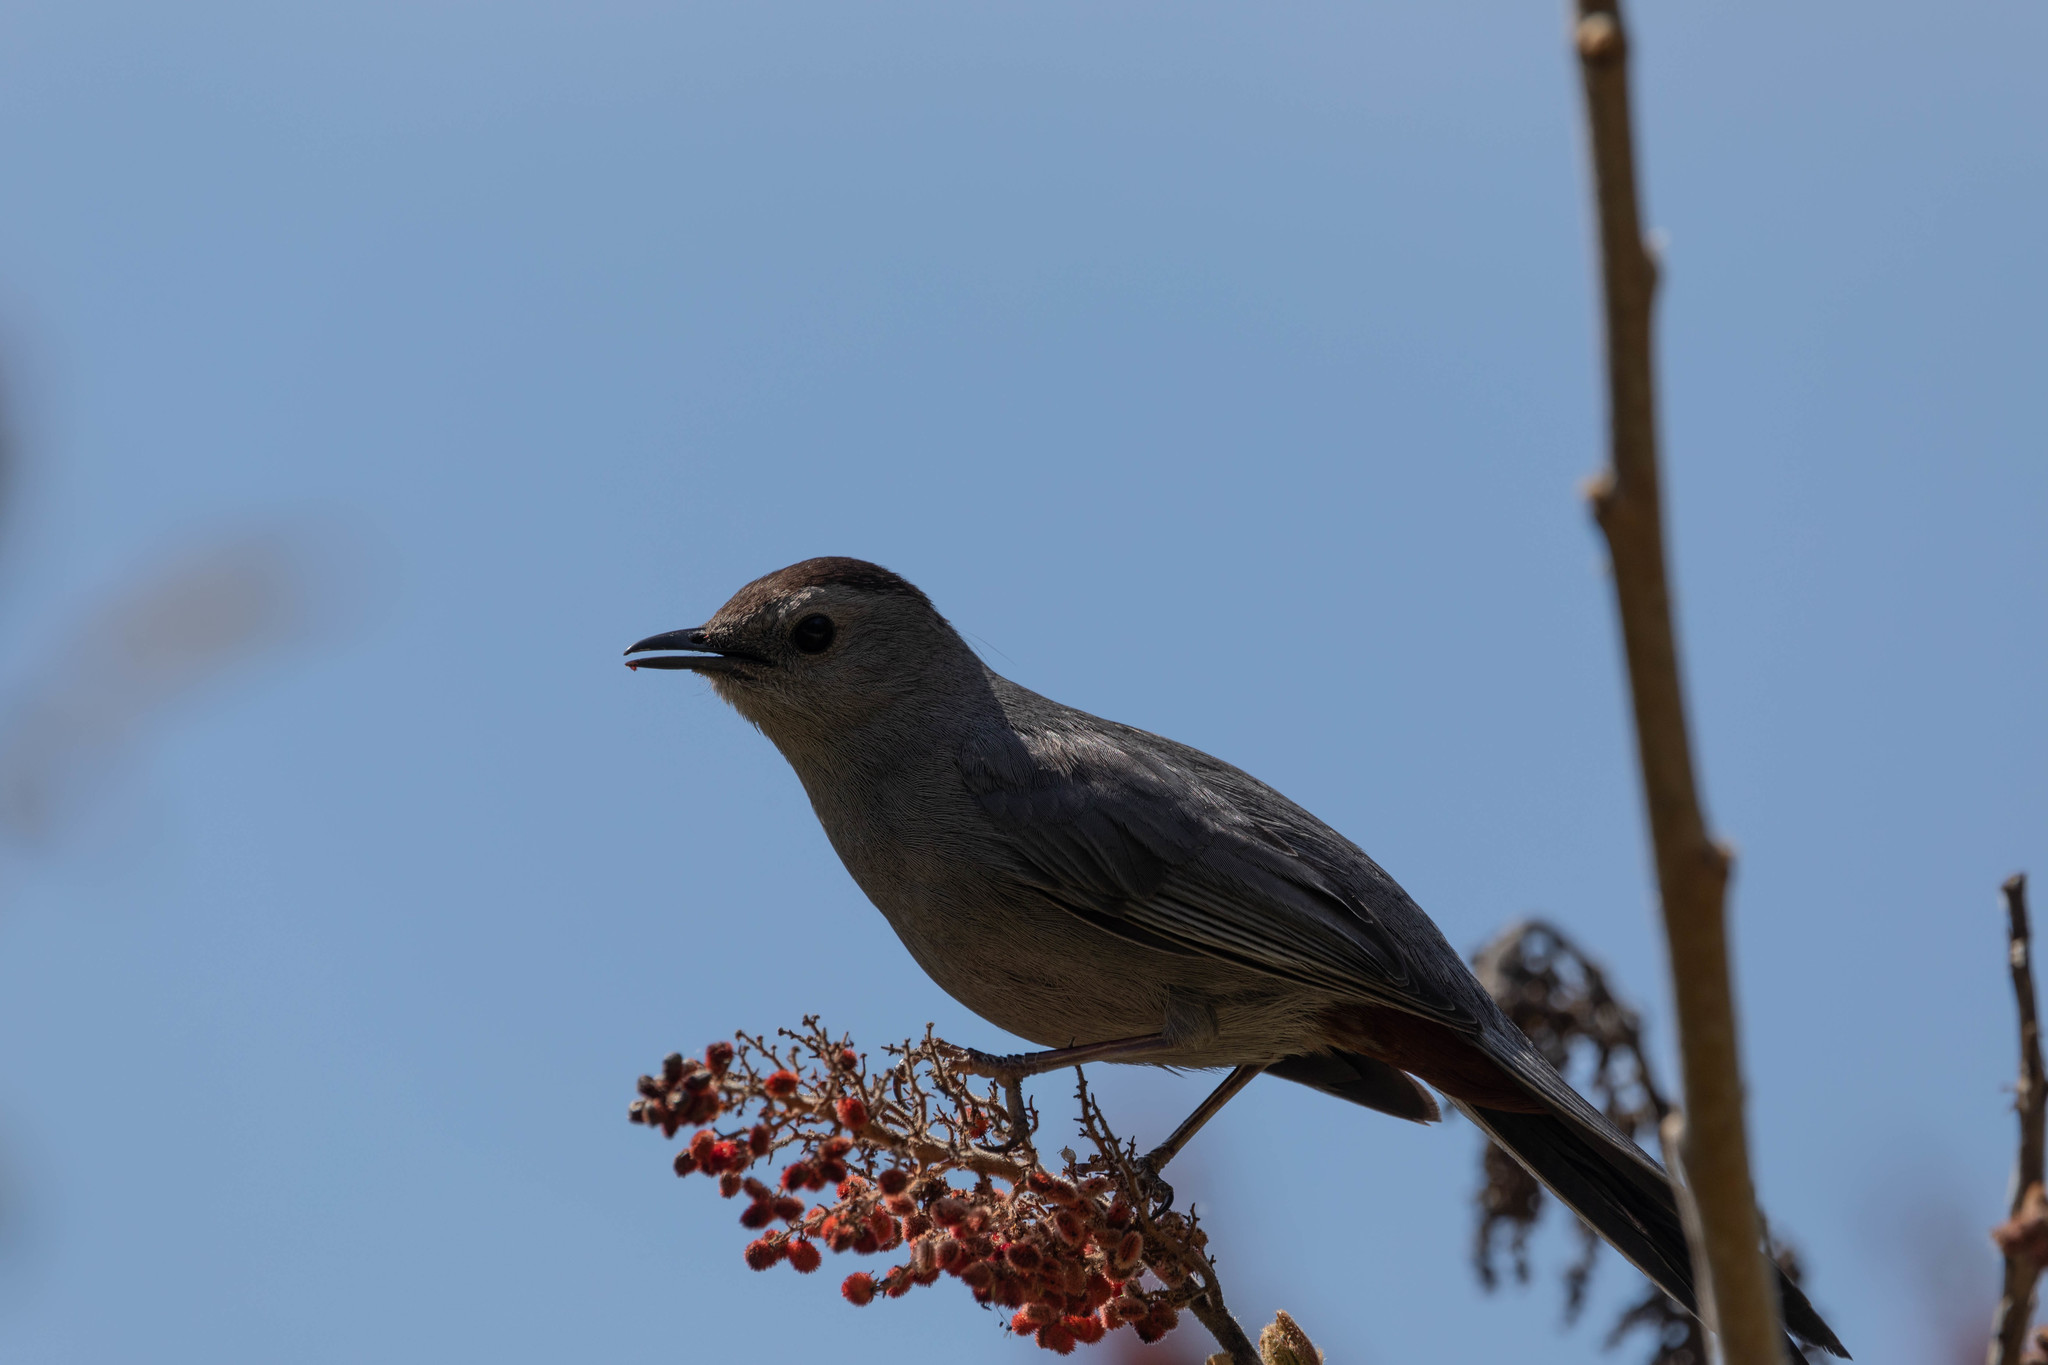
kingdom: Animalia
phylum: Chordata
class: Aves
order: Passeriformes
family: Mimidae
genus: Dumetella
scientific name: Dumetella carolinensis
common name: Gray catbird
